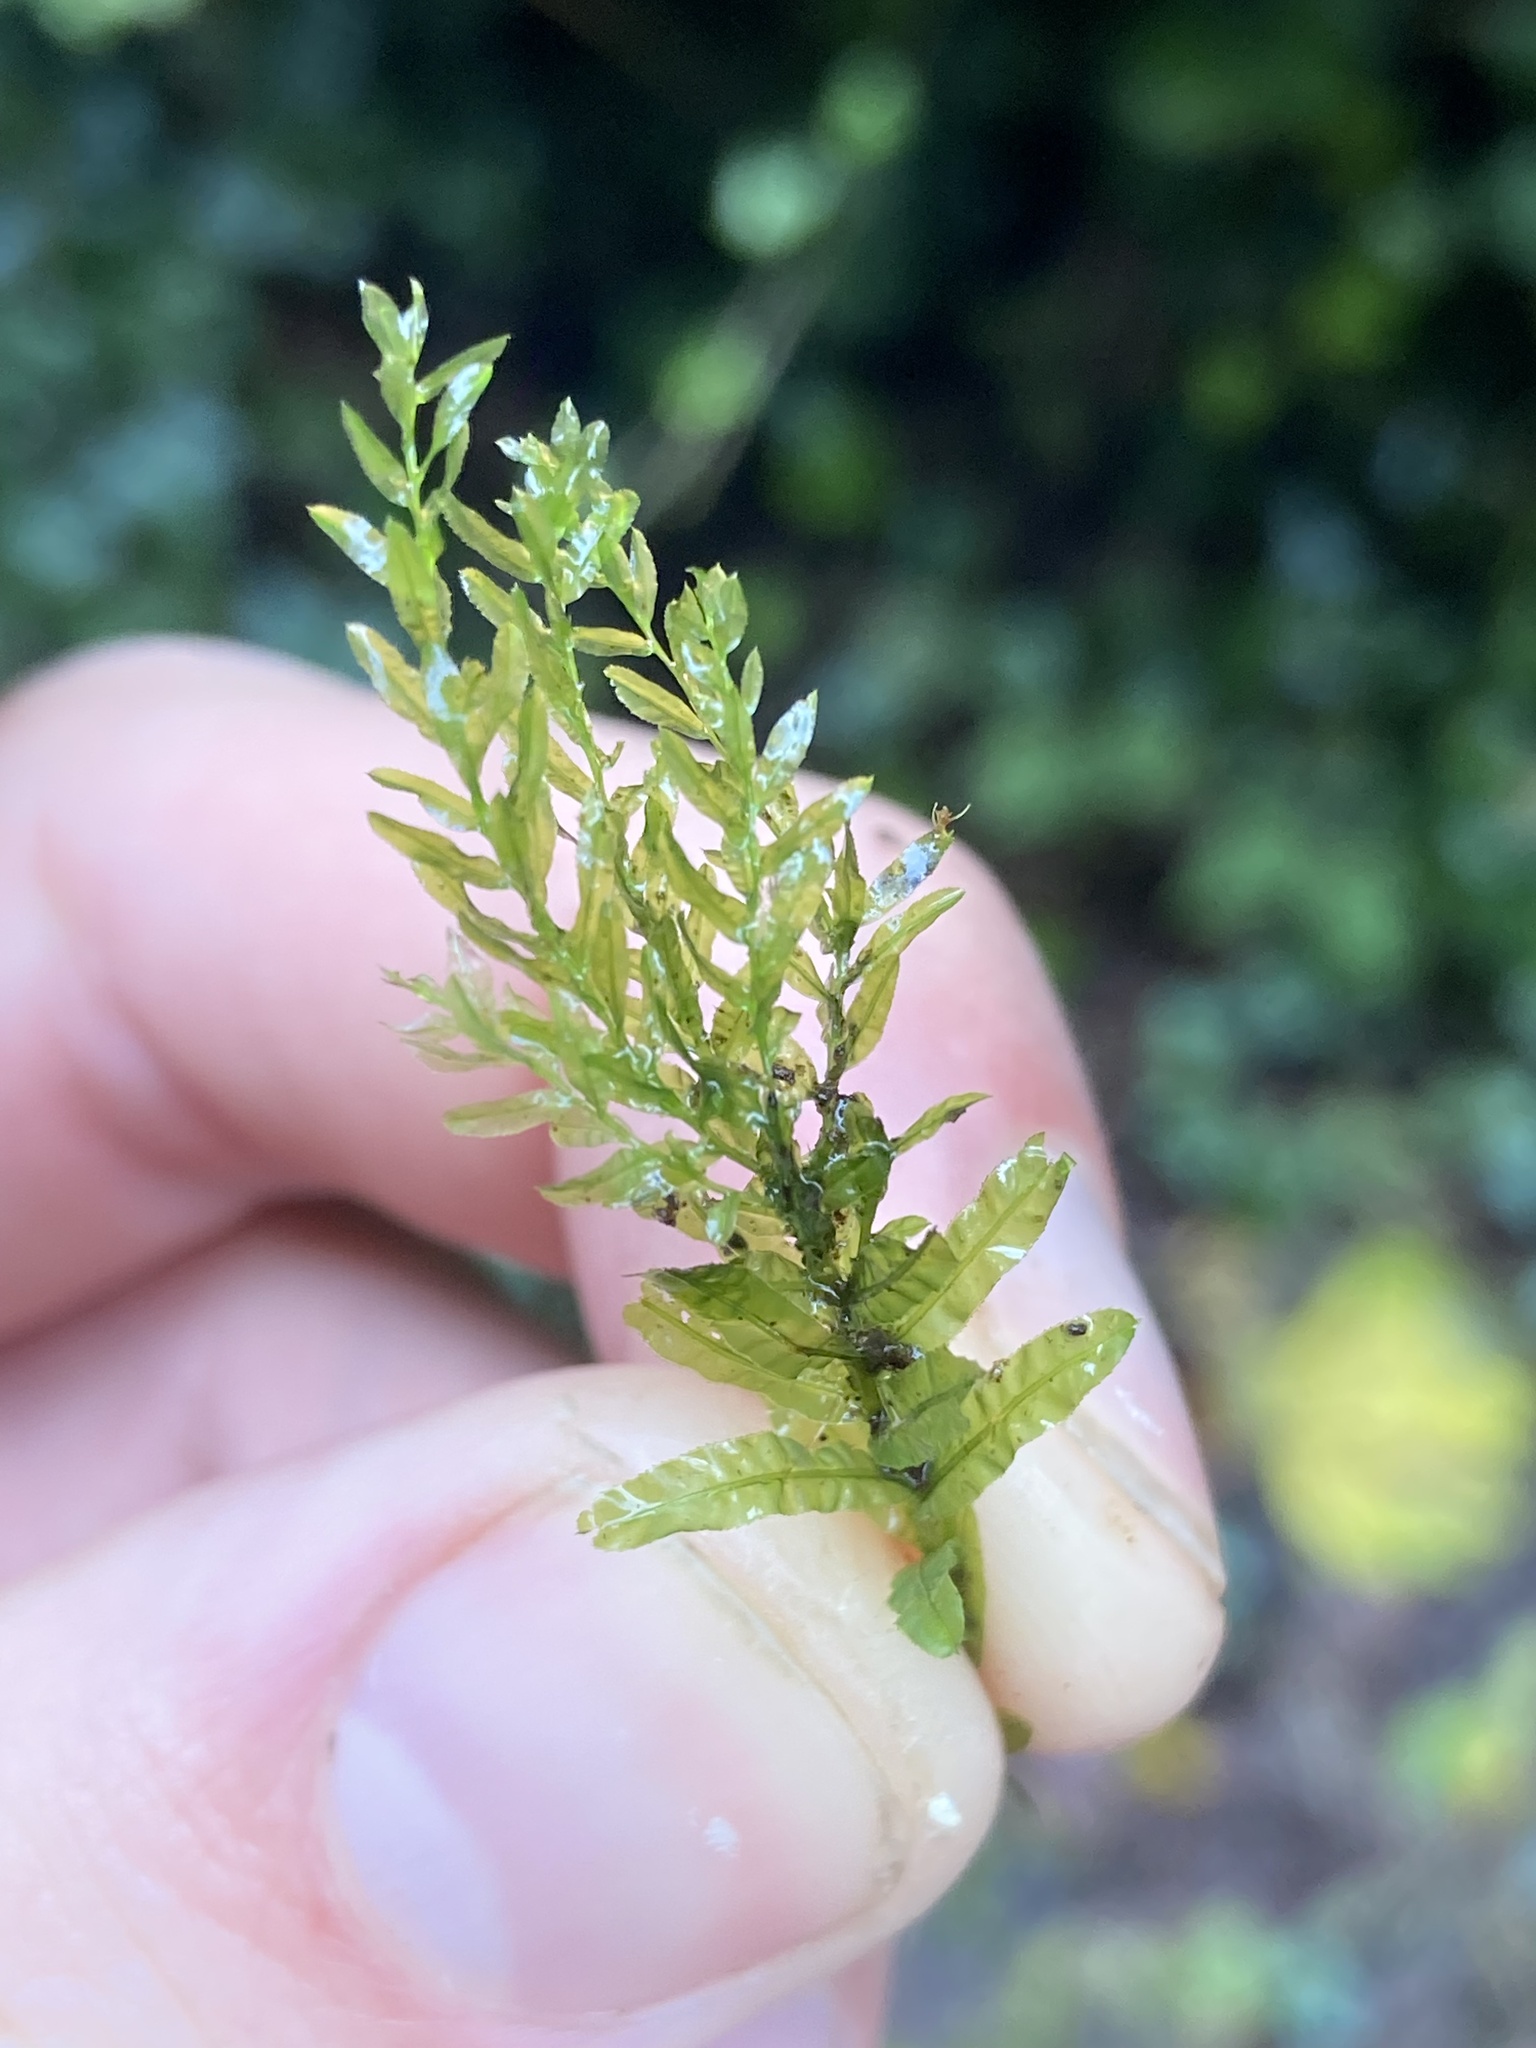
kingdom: Plantae
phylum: Bryophyta
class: Bryopsida
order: Bryales
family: Mniaceae
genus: Plagiomnium
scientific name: Plagiomnium undulatum
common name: Hart's-tongue thyme-moss
